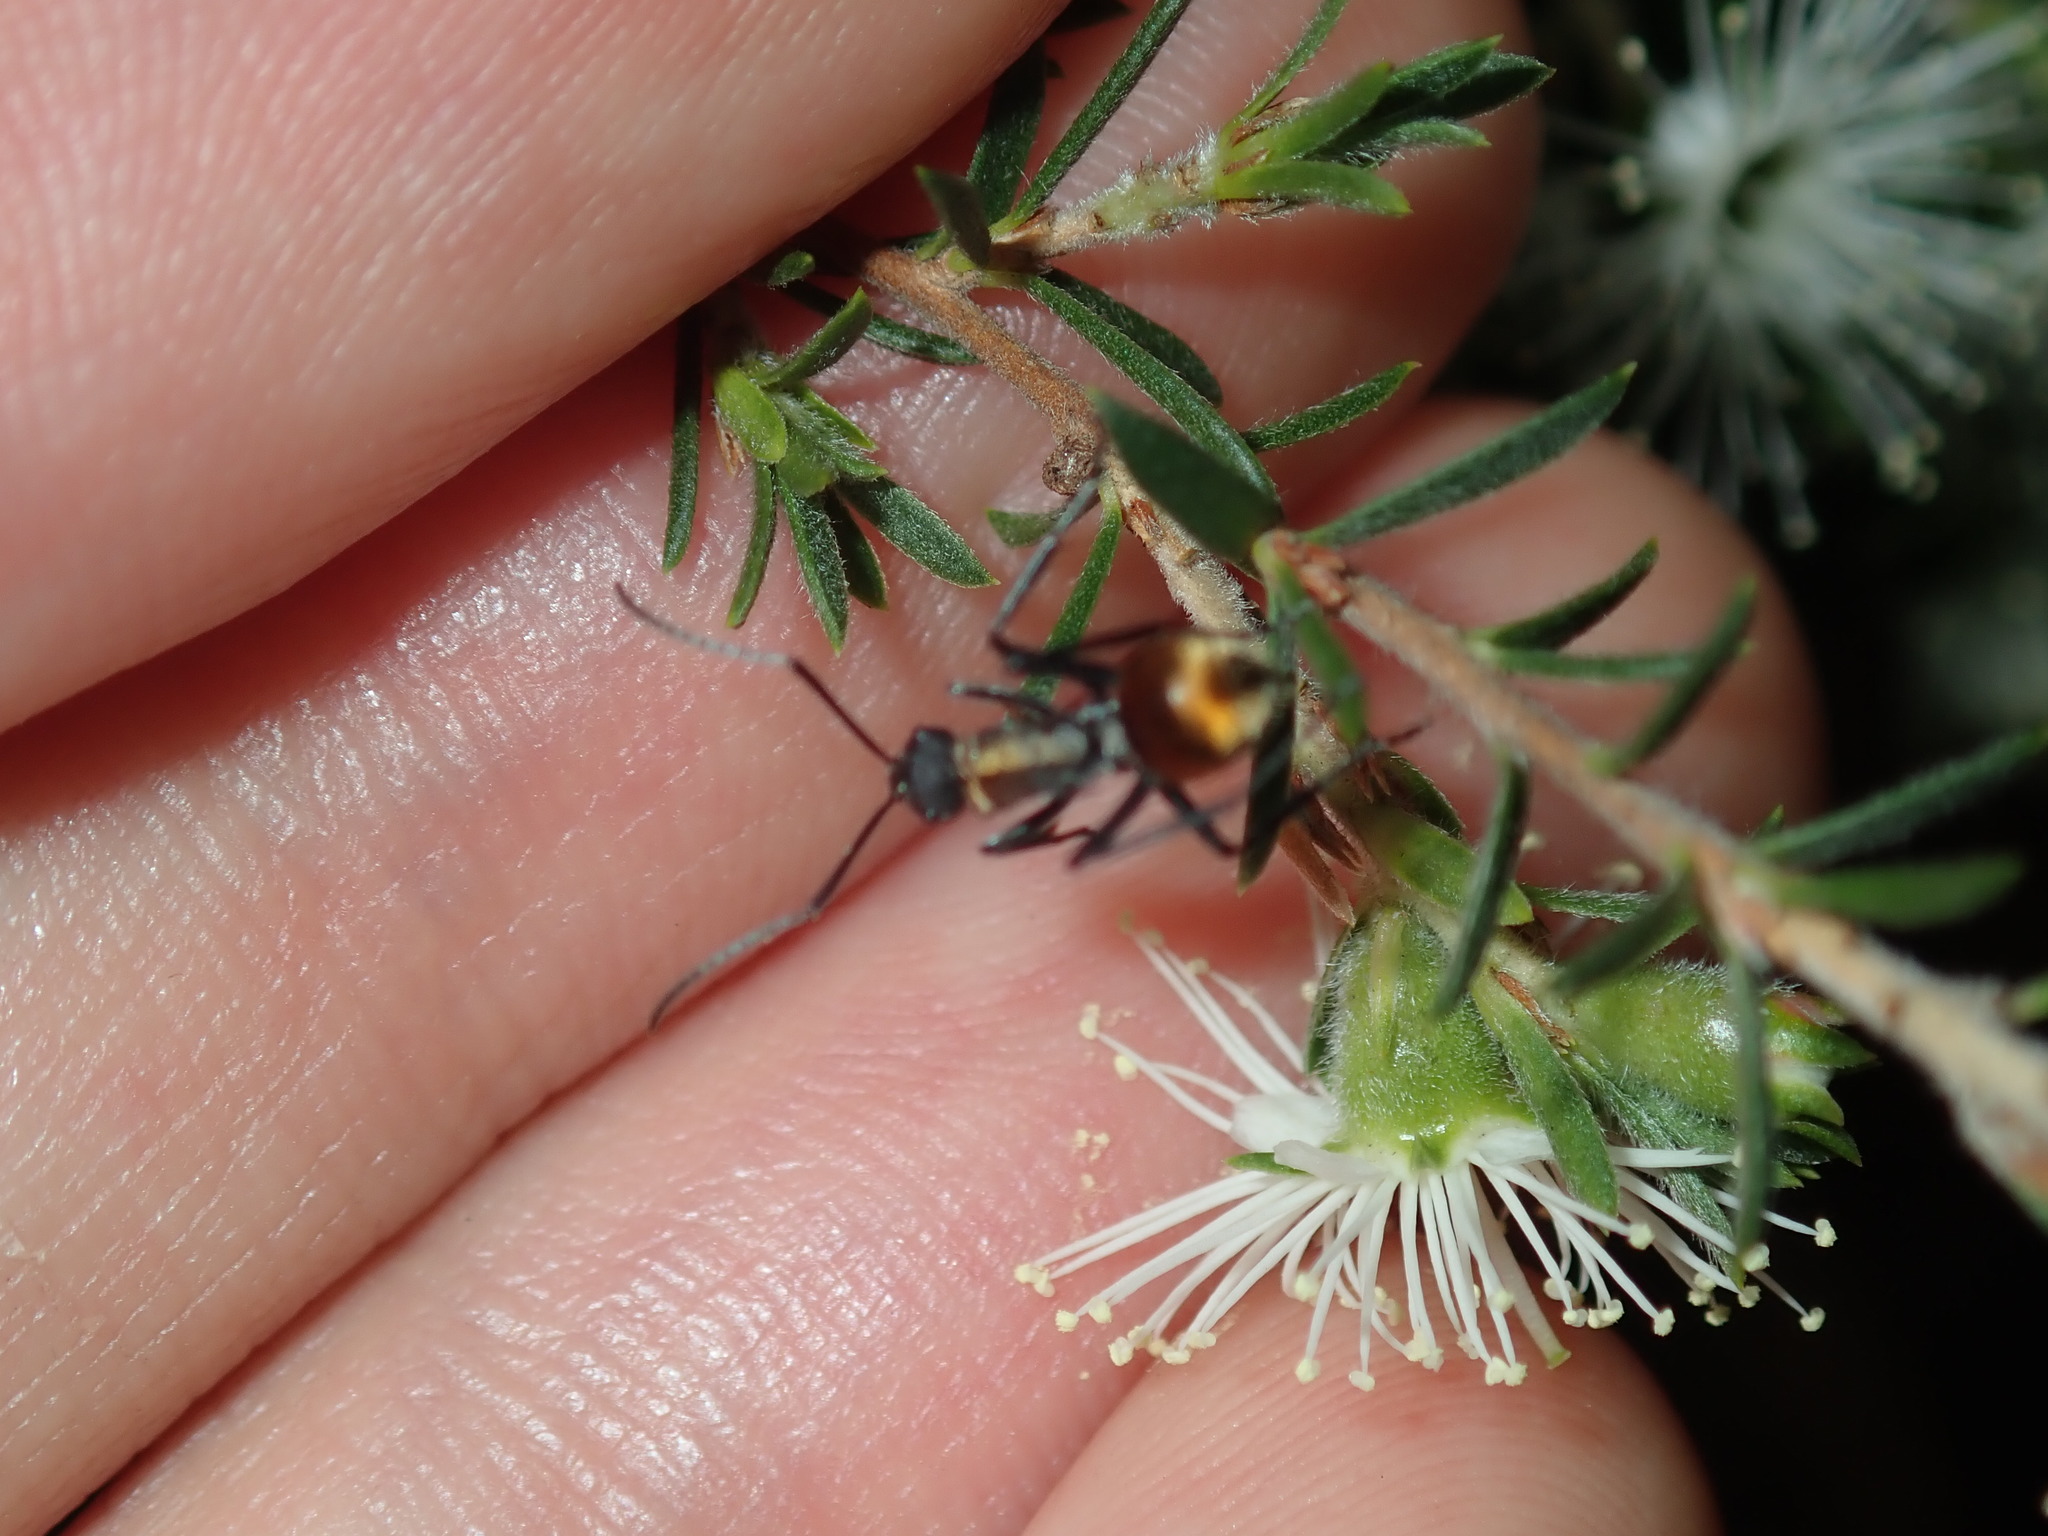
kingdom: Animalia
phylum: Arthropoda
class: Insecta
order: Hymenoptera
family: Formicidae
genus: Polyrhachis
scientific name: Polyrhachis ammon
